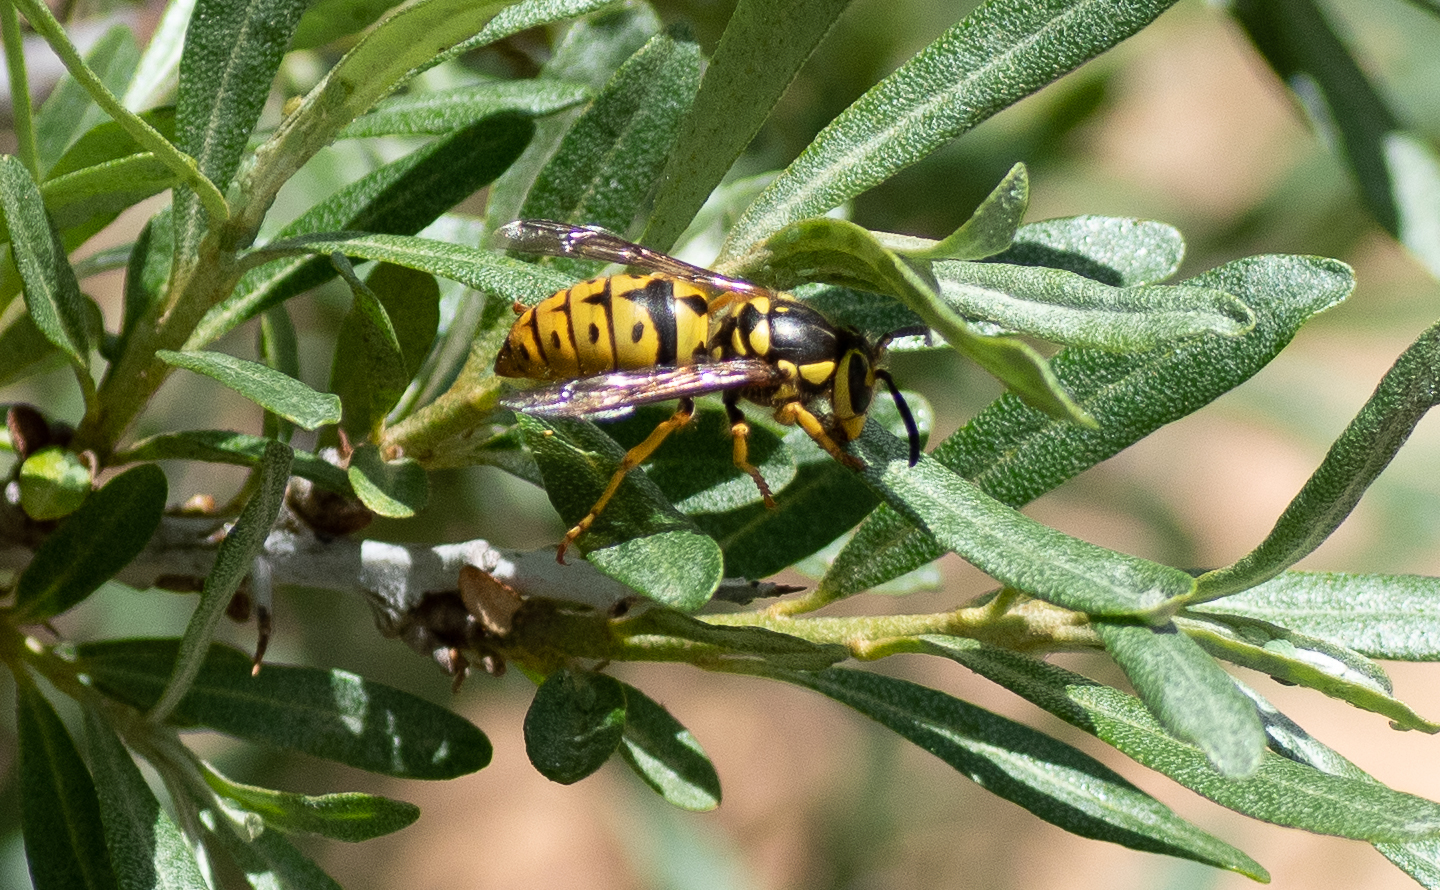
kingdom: Animalia
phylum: Arthropoda
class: Insecta
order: Hymenoptera
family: Vespidae
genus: Vespula
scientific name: Vespula pensylvanica
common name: Western yellowjacket
